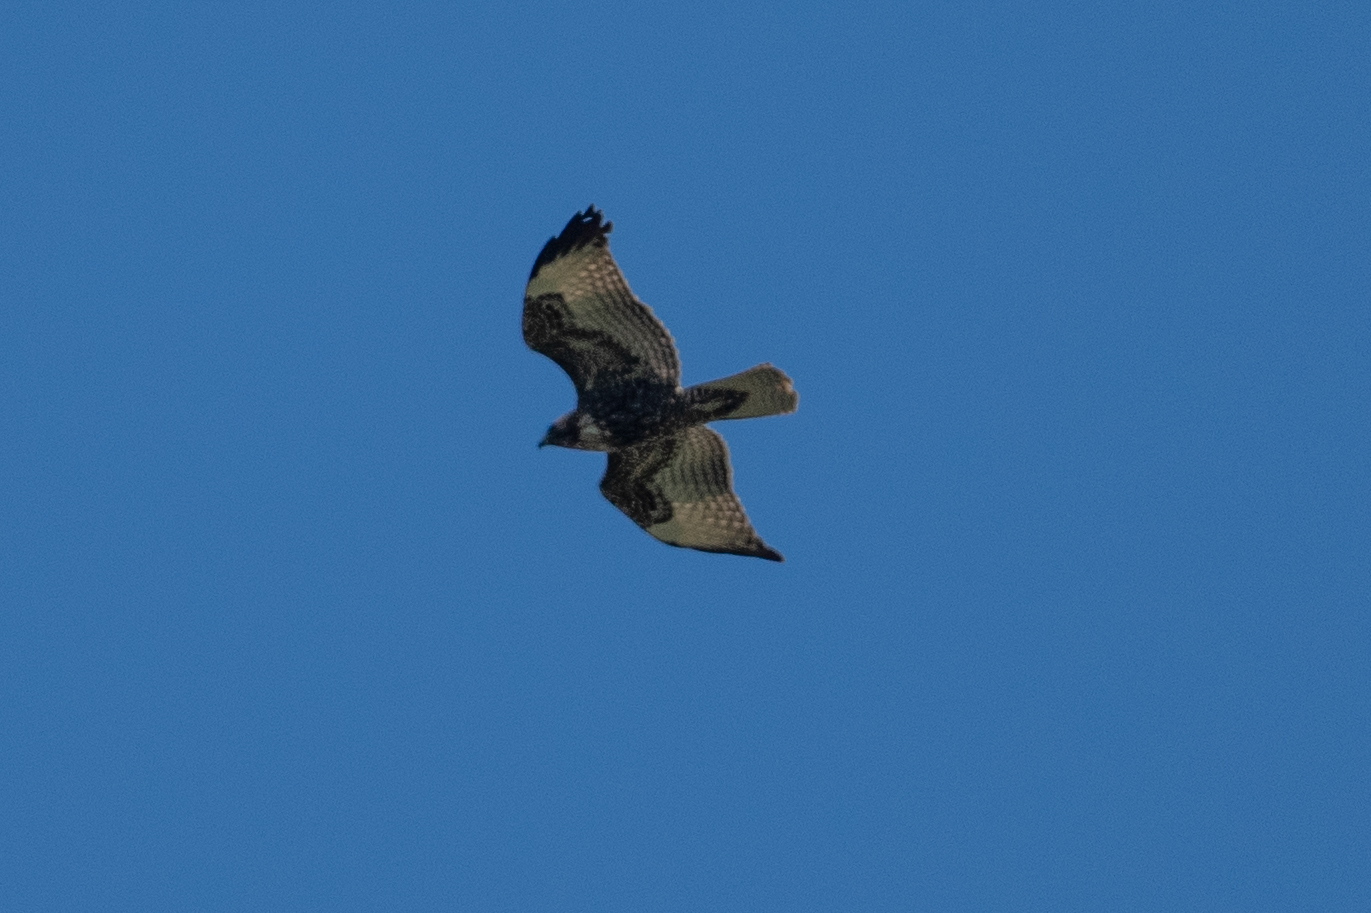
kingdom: Animalia
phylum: Chordata
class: Aves
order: Accipitriformes
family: Accipitridae
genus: Buteo
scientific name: Buteo jamaicensis
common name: Red-tailed hawk
